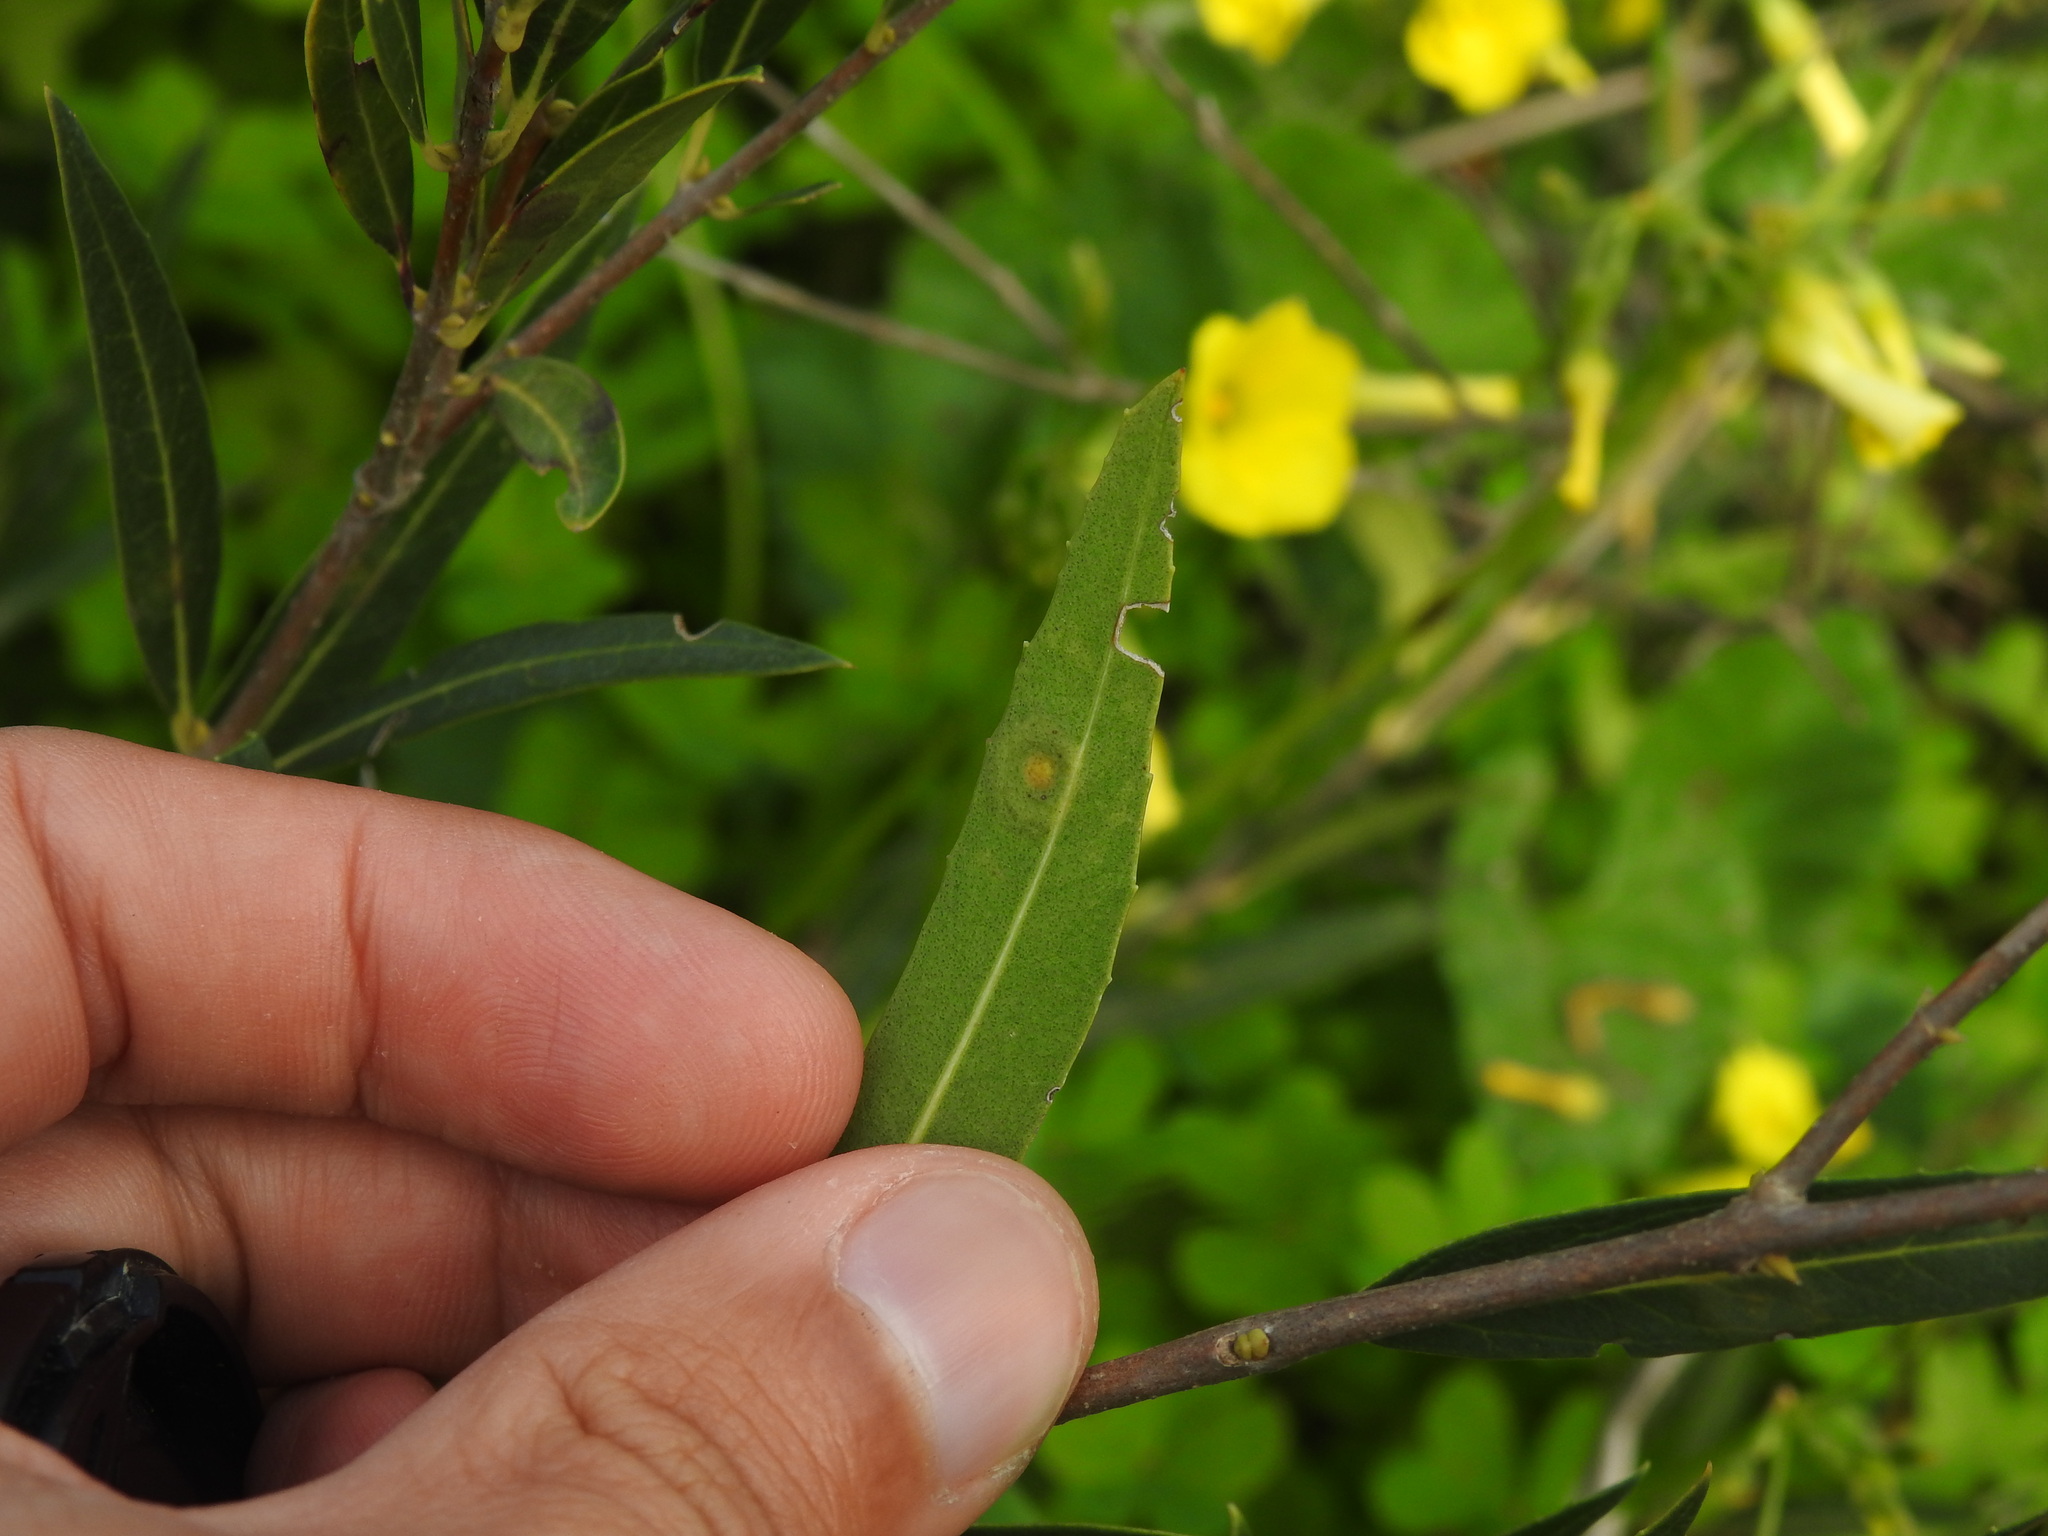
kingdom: Animalia
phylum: Arthropoda
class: Insecta
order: Diptera
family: Cecidomyiidae
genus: Braueriella
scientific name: Braueriella phillyreae
